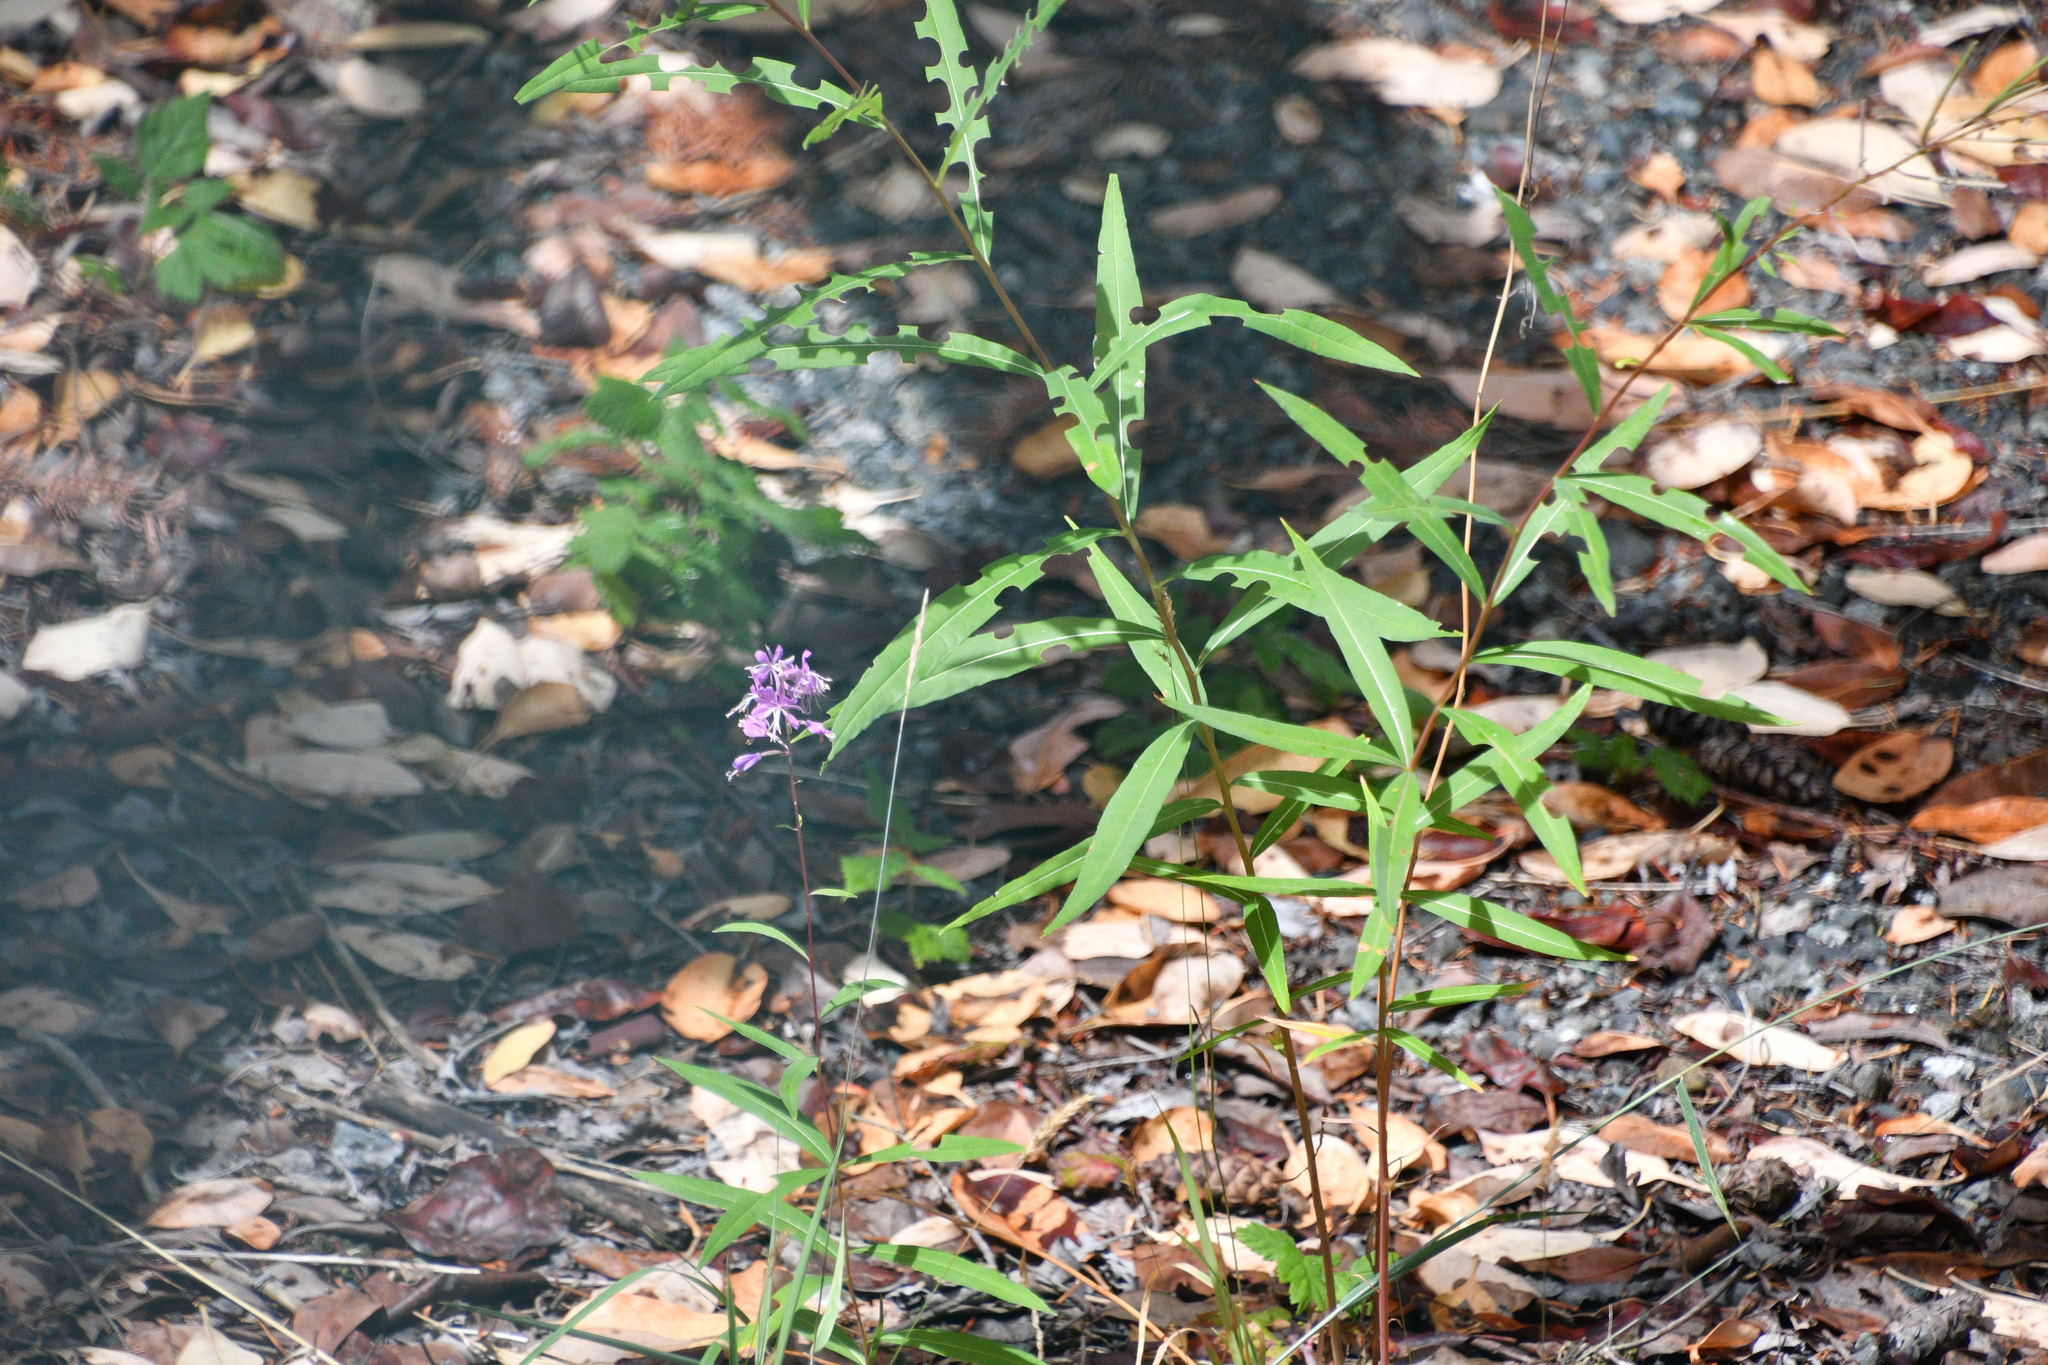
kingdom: Plantae
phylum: Tracheophyta
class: Magnoliopsida
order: Myrtales
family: Onagraceae
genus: Chamaenerion
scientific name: Chamaenerion angustifolium
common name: Fireweed
